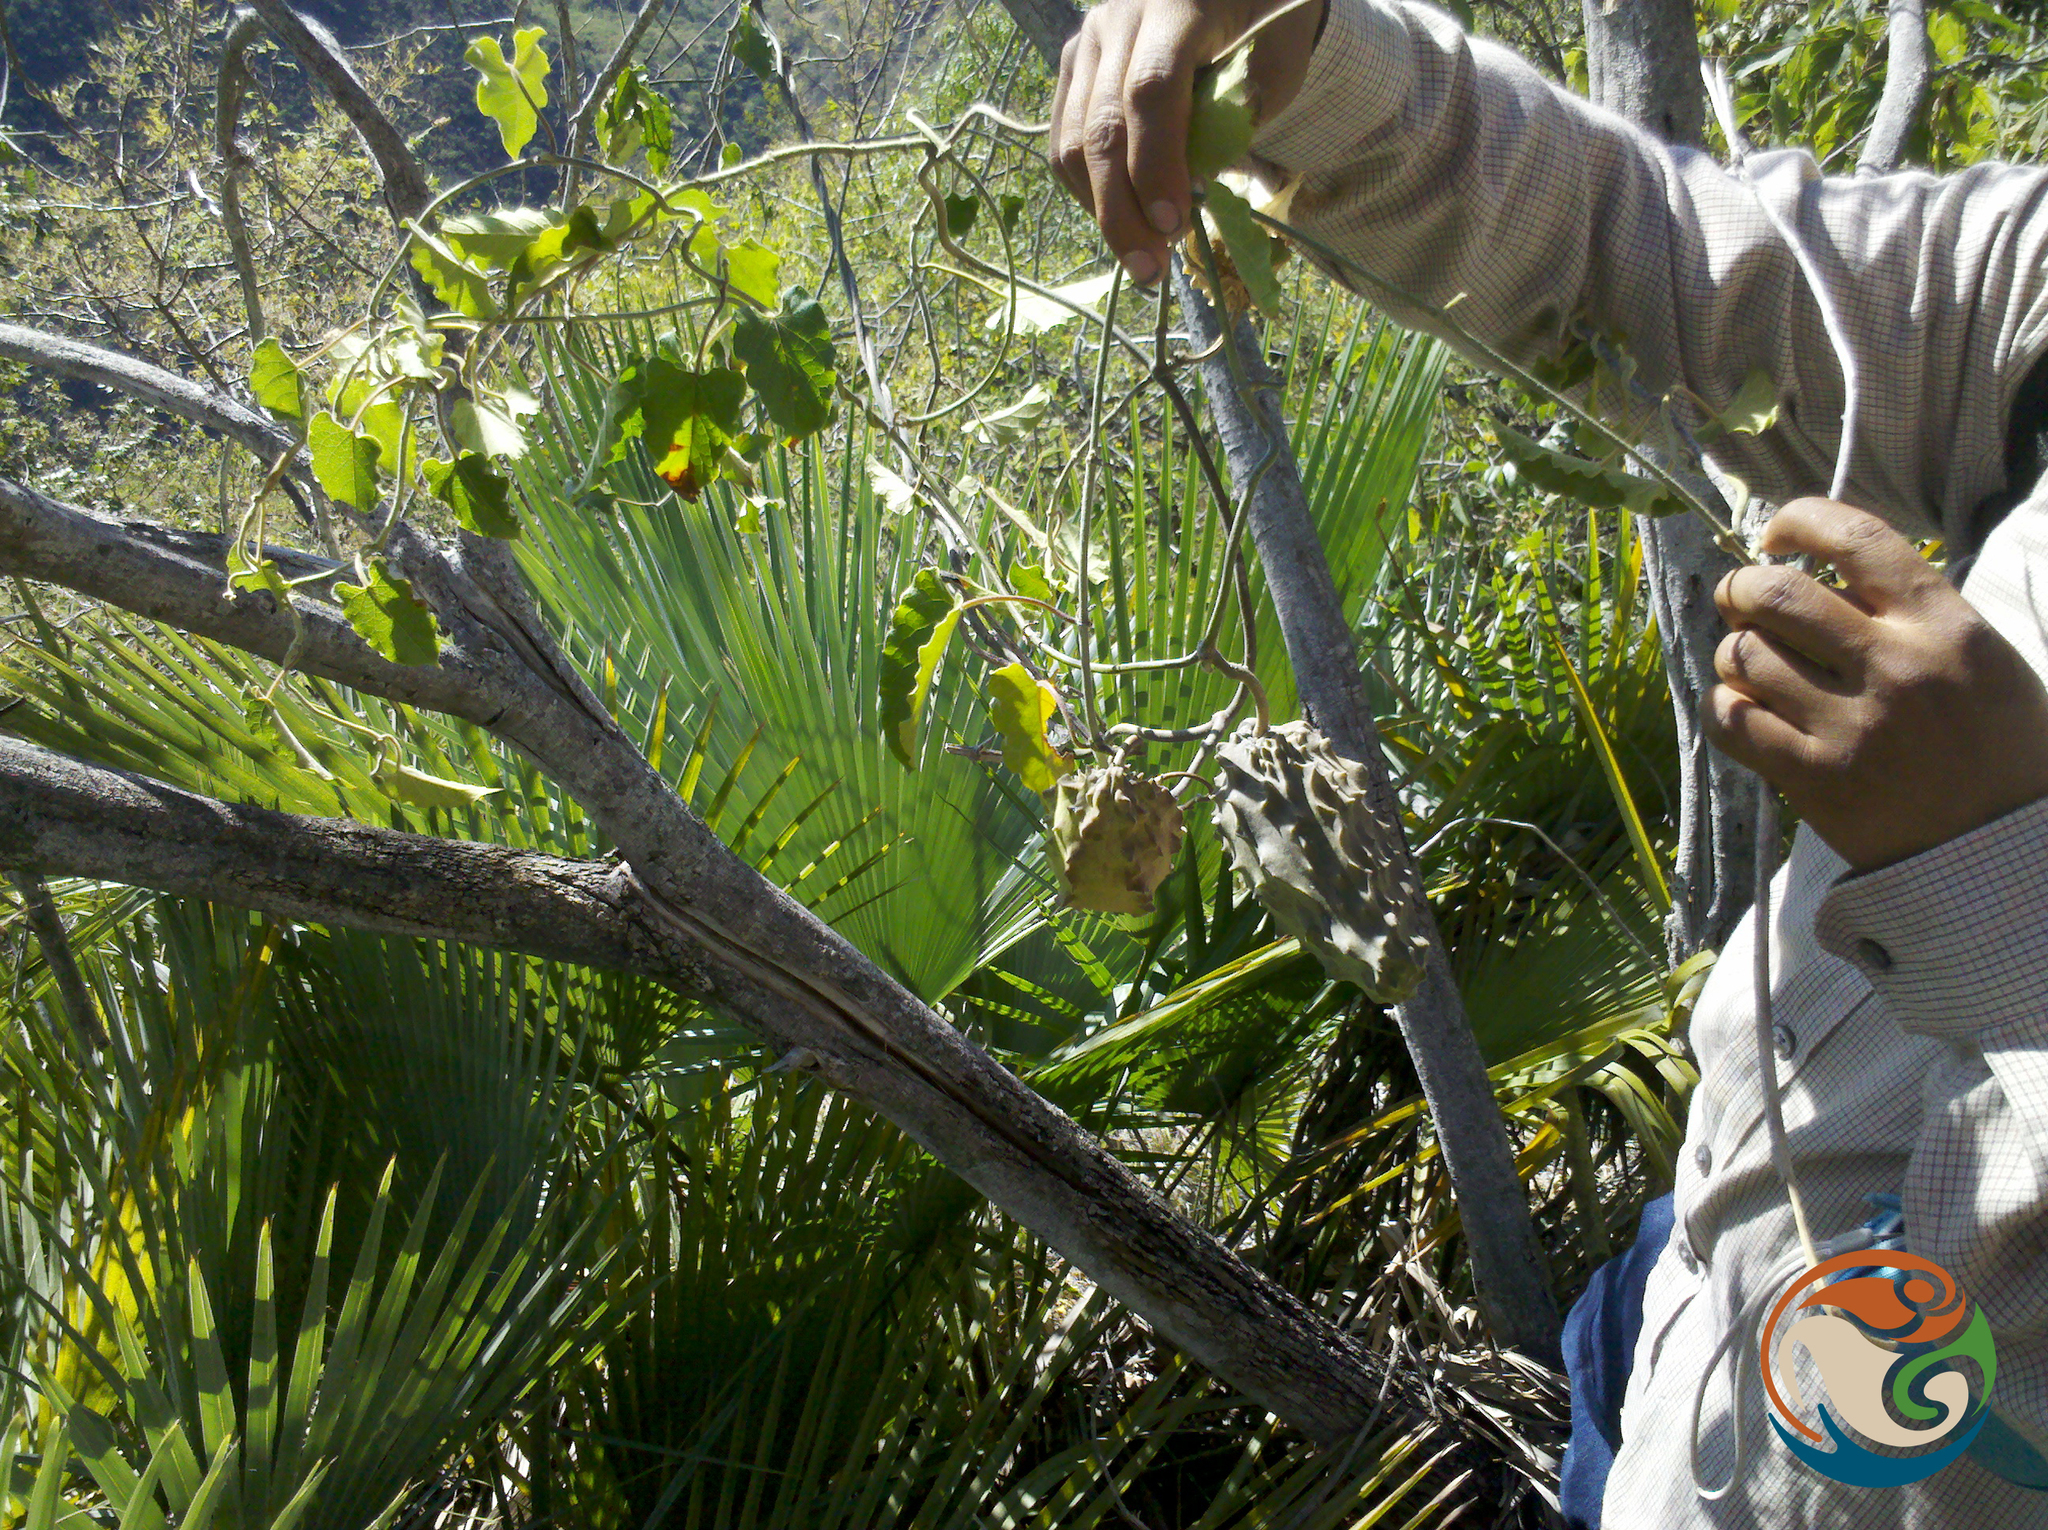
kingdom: Plantae
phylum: Tracheophyta
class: Magnoliopsida
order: Gentianales
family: Apocynaceae
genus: Gonolobus
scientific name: Gonolobus grandiflorus
